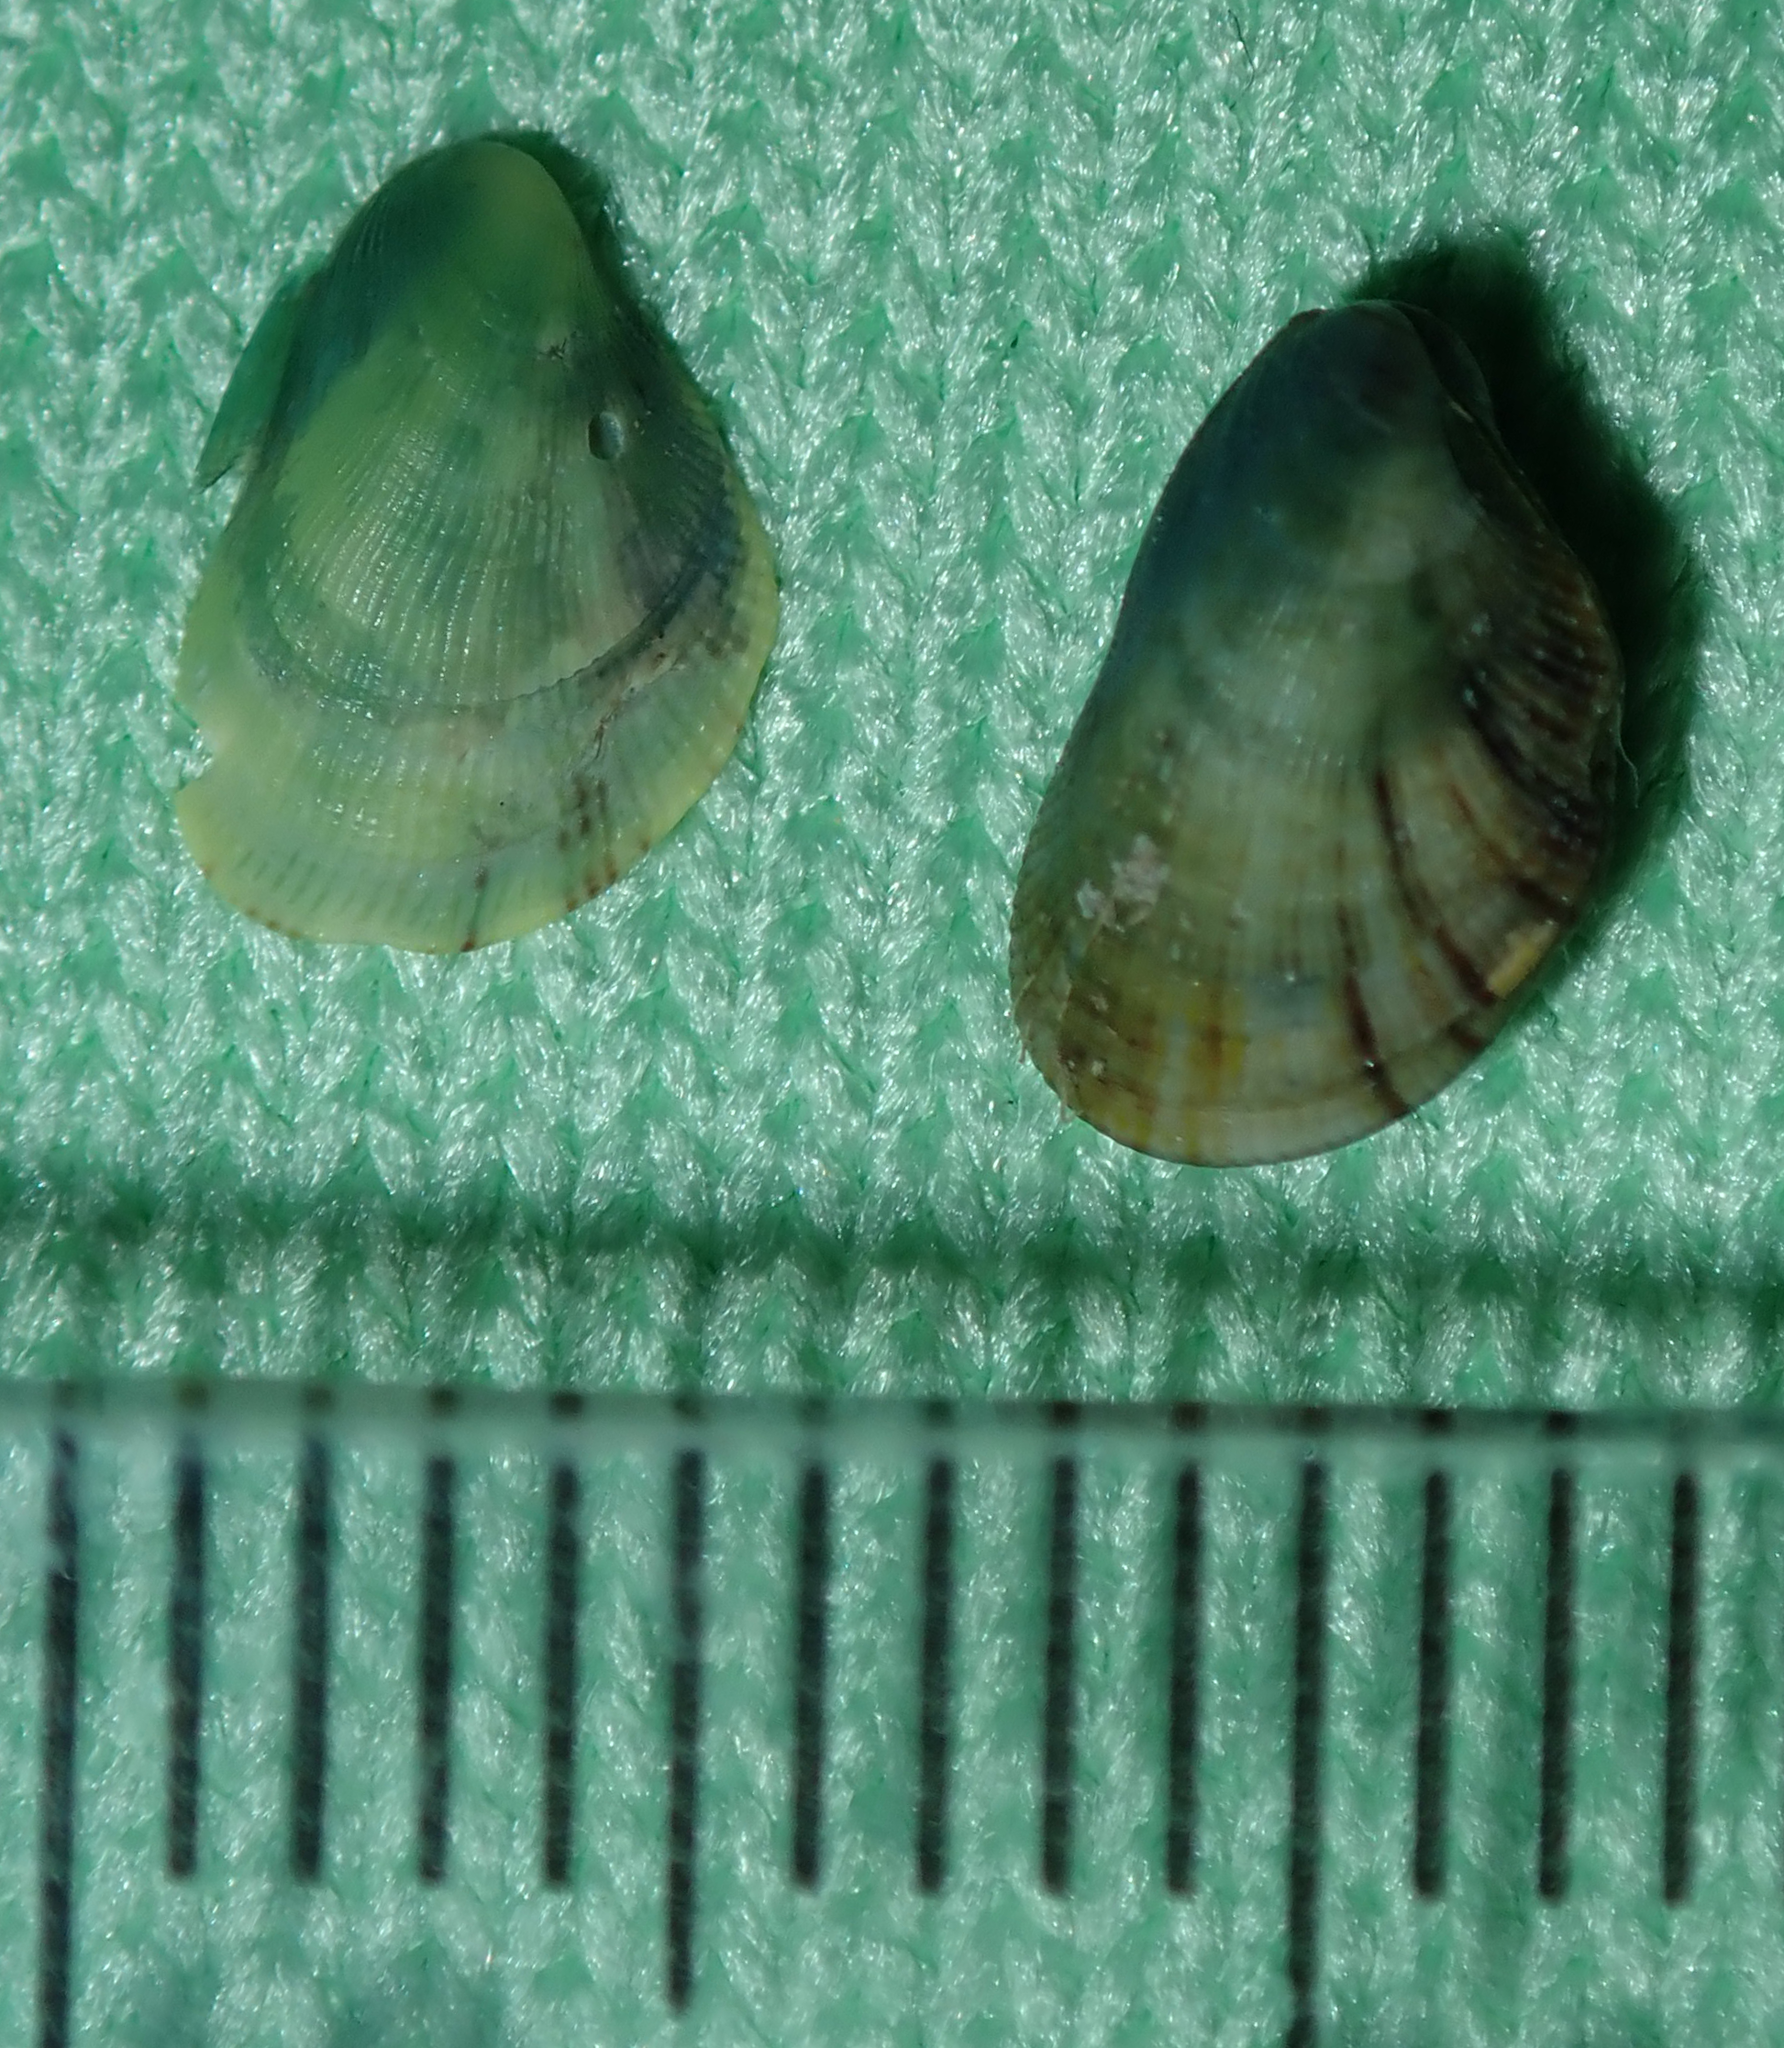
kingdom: Animalia
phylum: Mollusca
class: Bivalvia
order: Mytilida
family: Mytilidae
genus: Septifer
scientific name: Septifer cumingii
